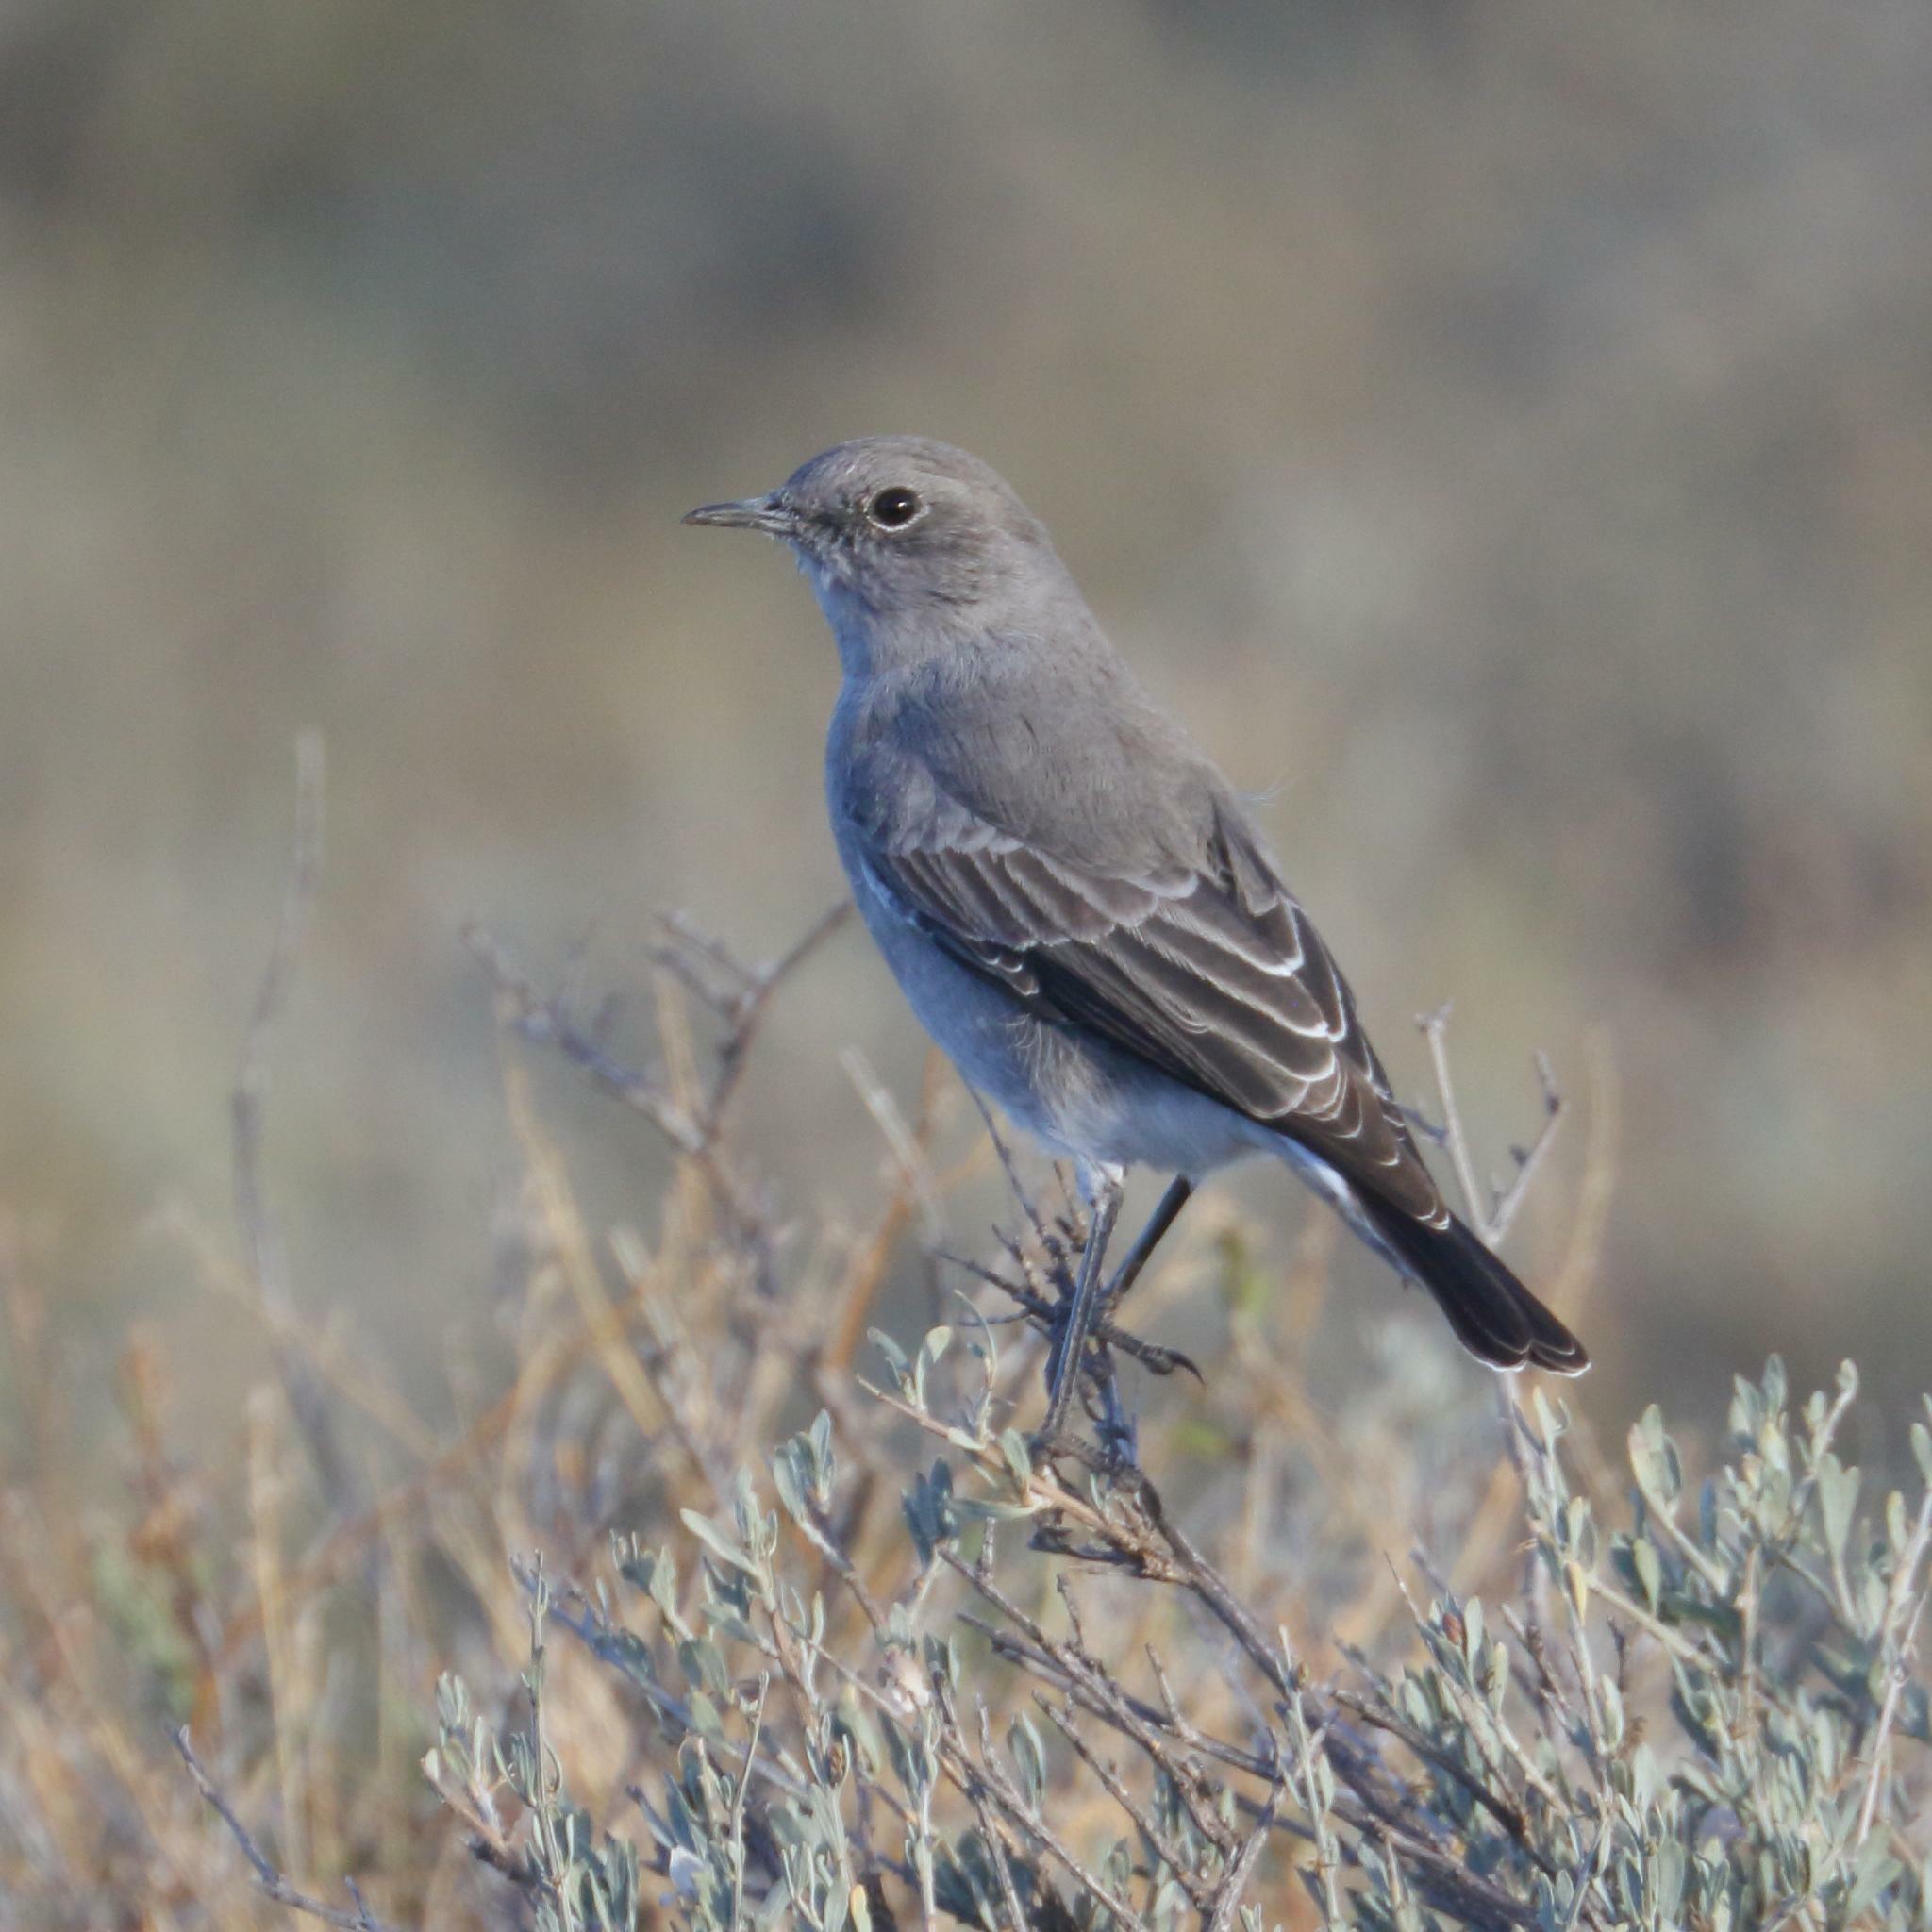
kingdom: Animalia
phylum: Chordata
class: Aves
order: Passeriformes
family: Muscicapidae
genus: Emarginata
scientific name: Emarginata schlegelii
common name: Karoo chat
